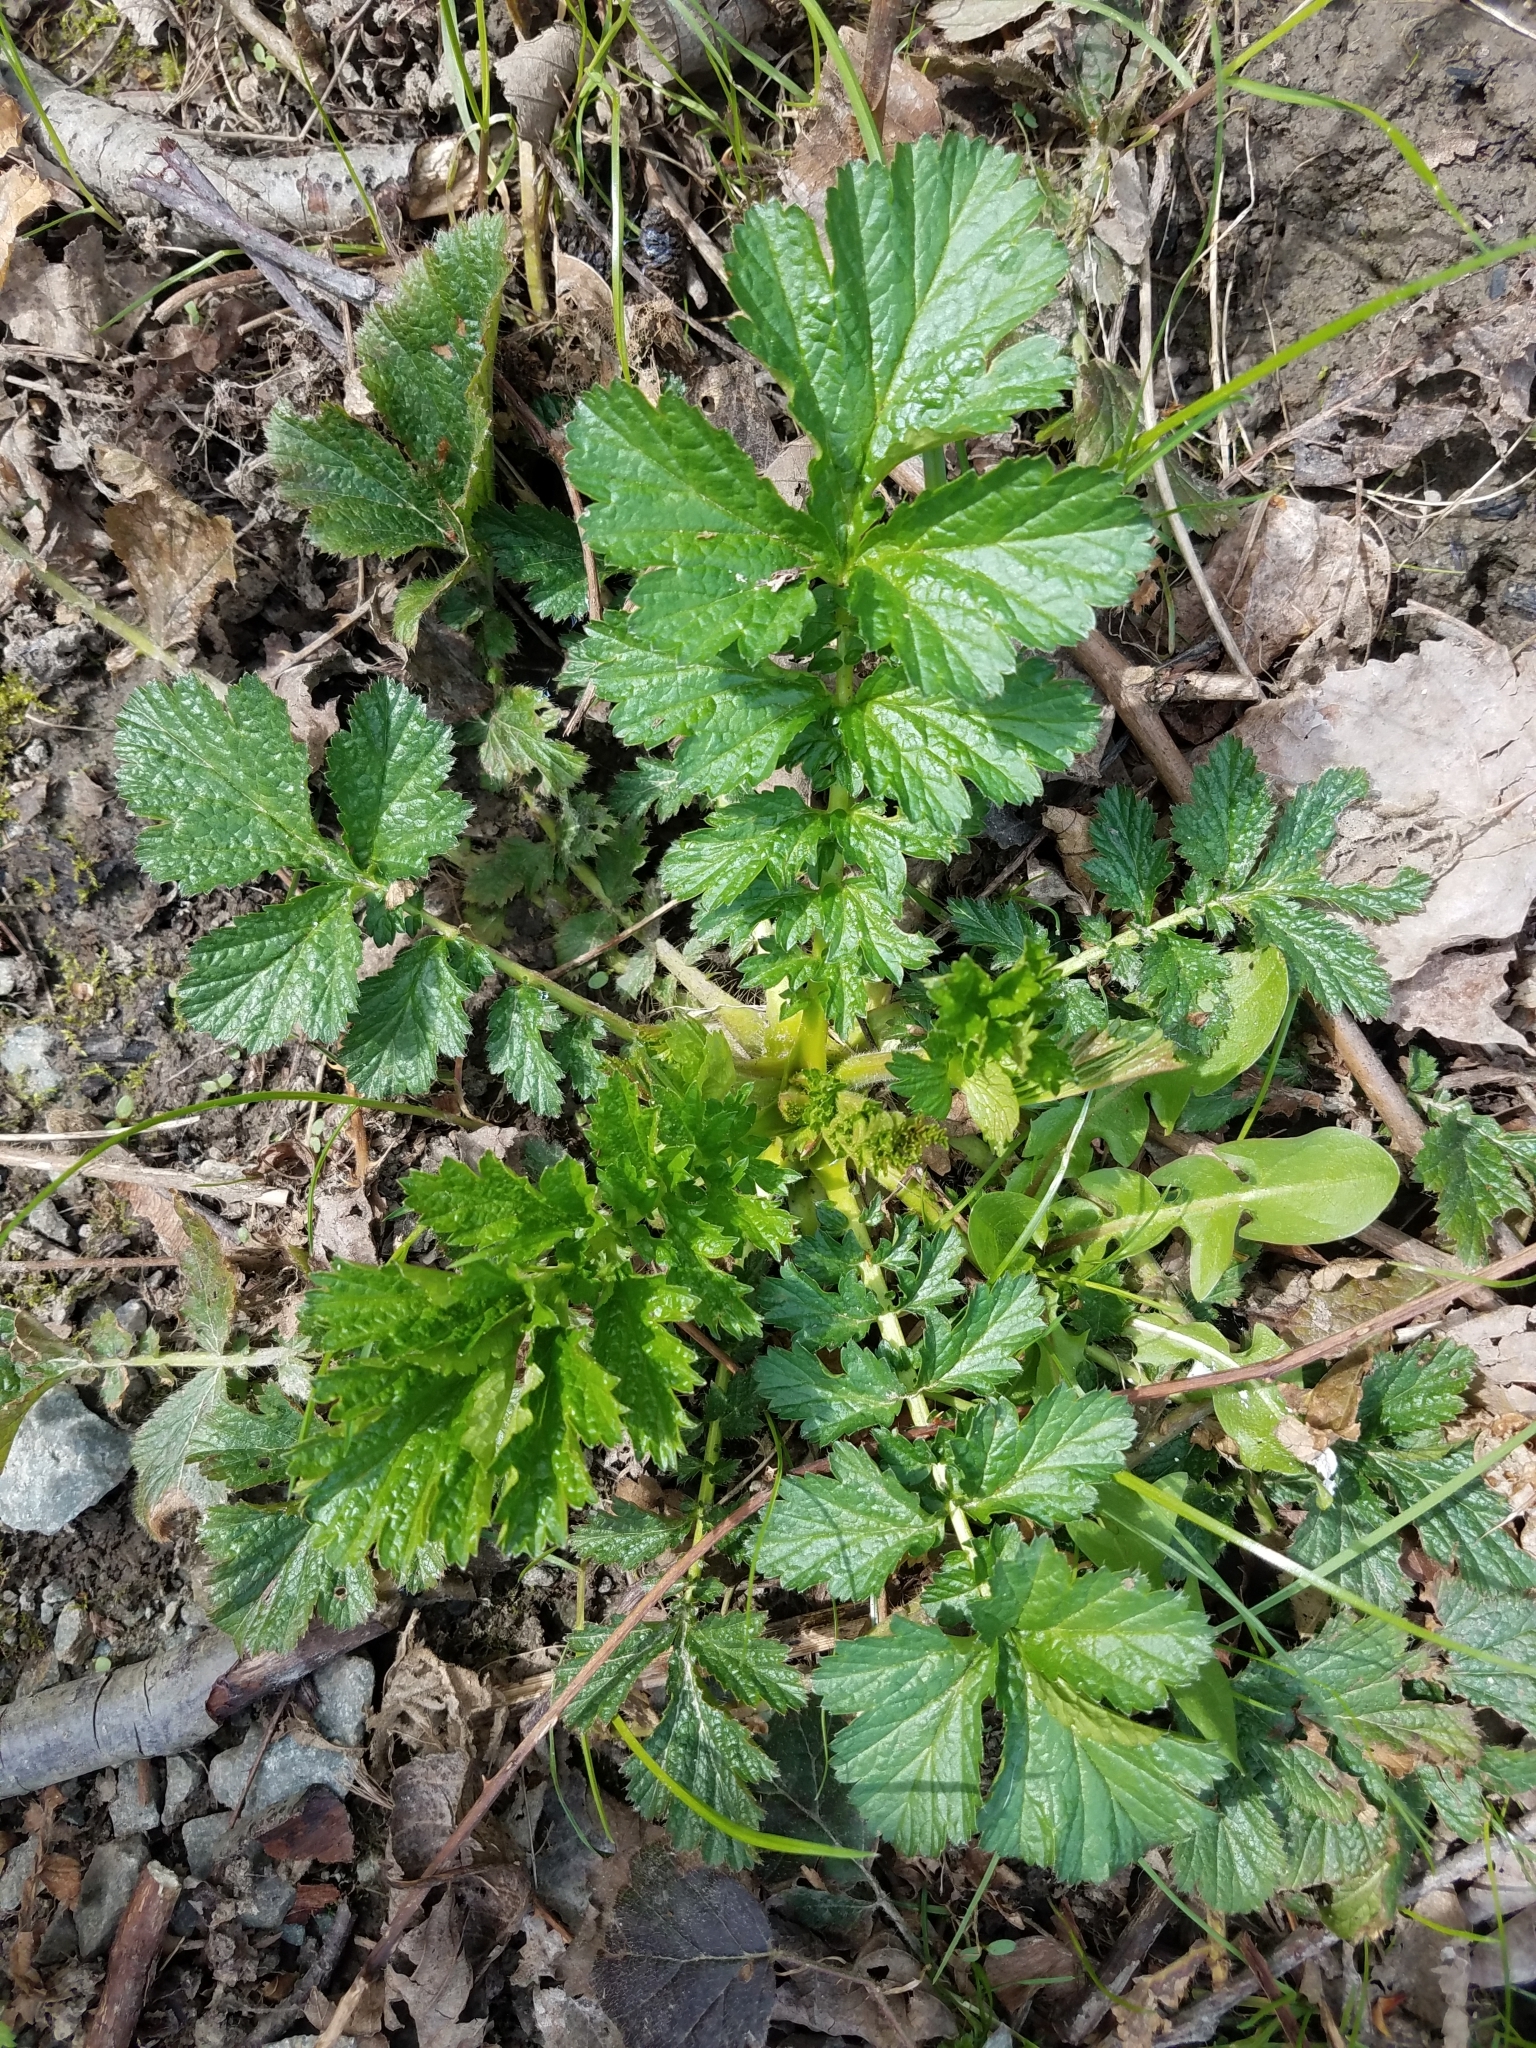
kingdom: Plantae
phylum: Tracheophyta
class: Magnoliopsida
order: Rosales
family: Rosaceae
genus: Geum
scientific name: Geum urbanum
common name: Wood avens
